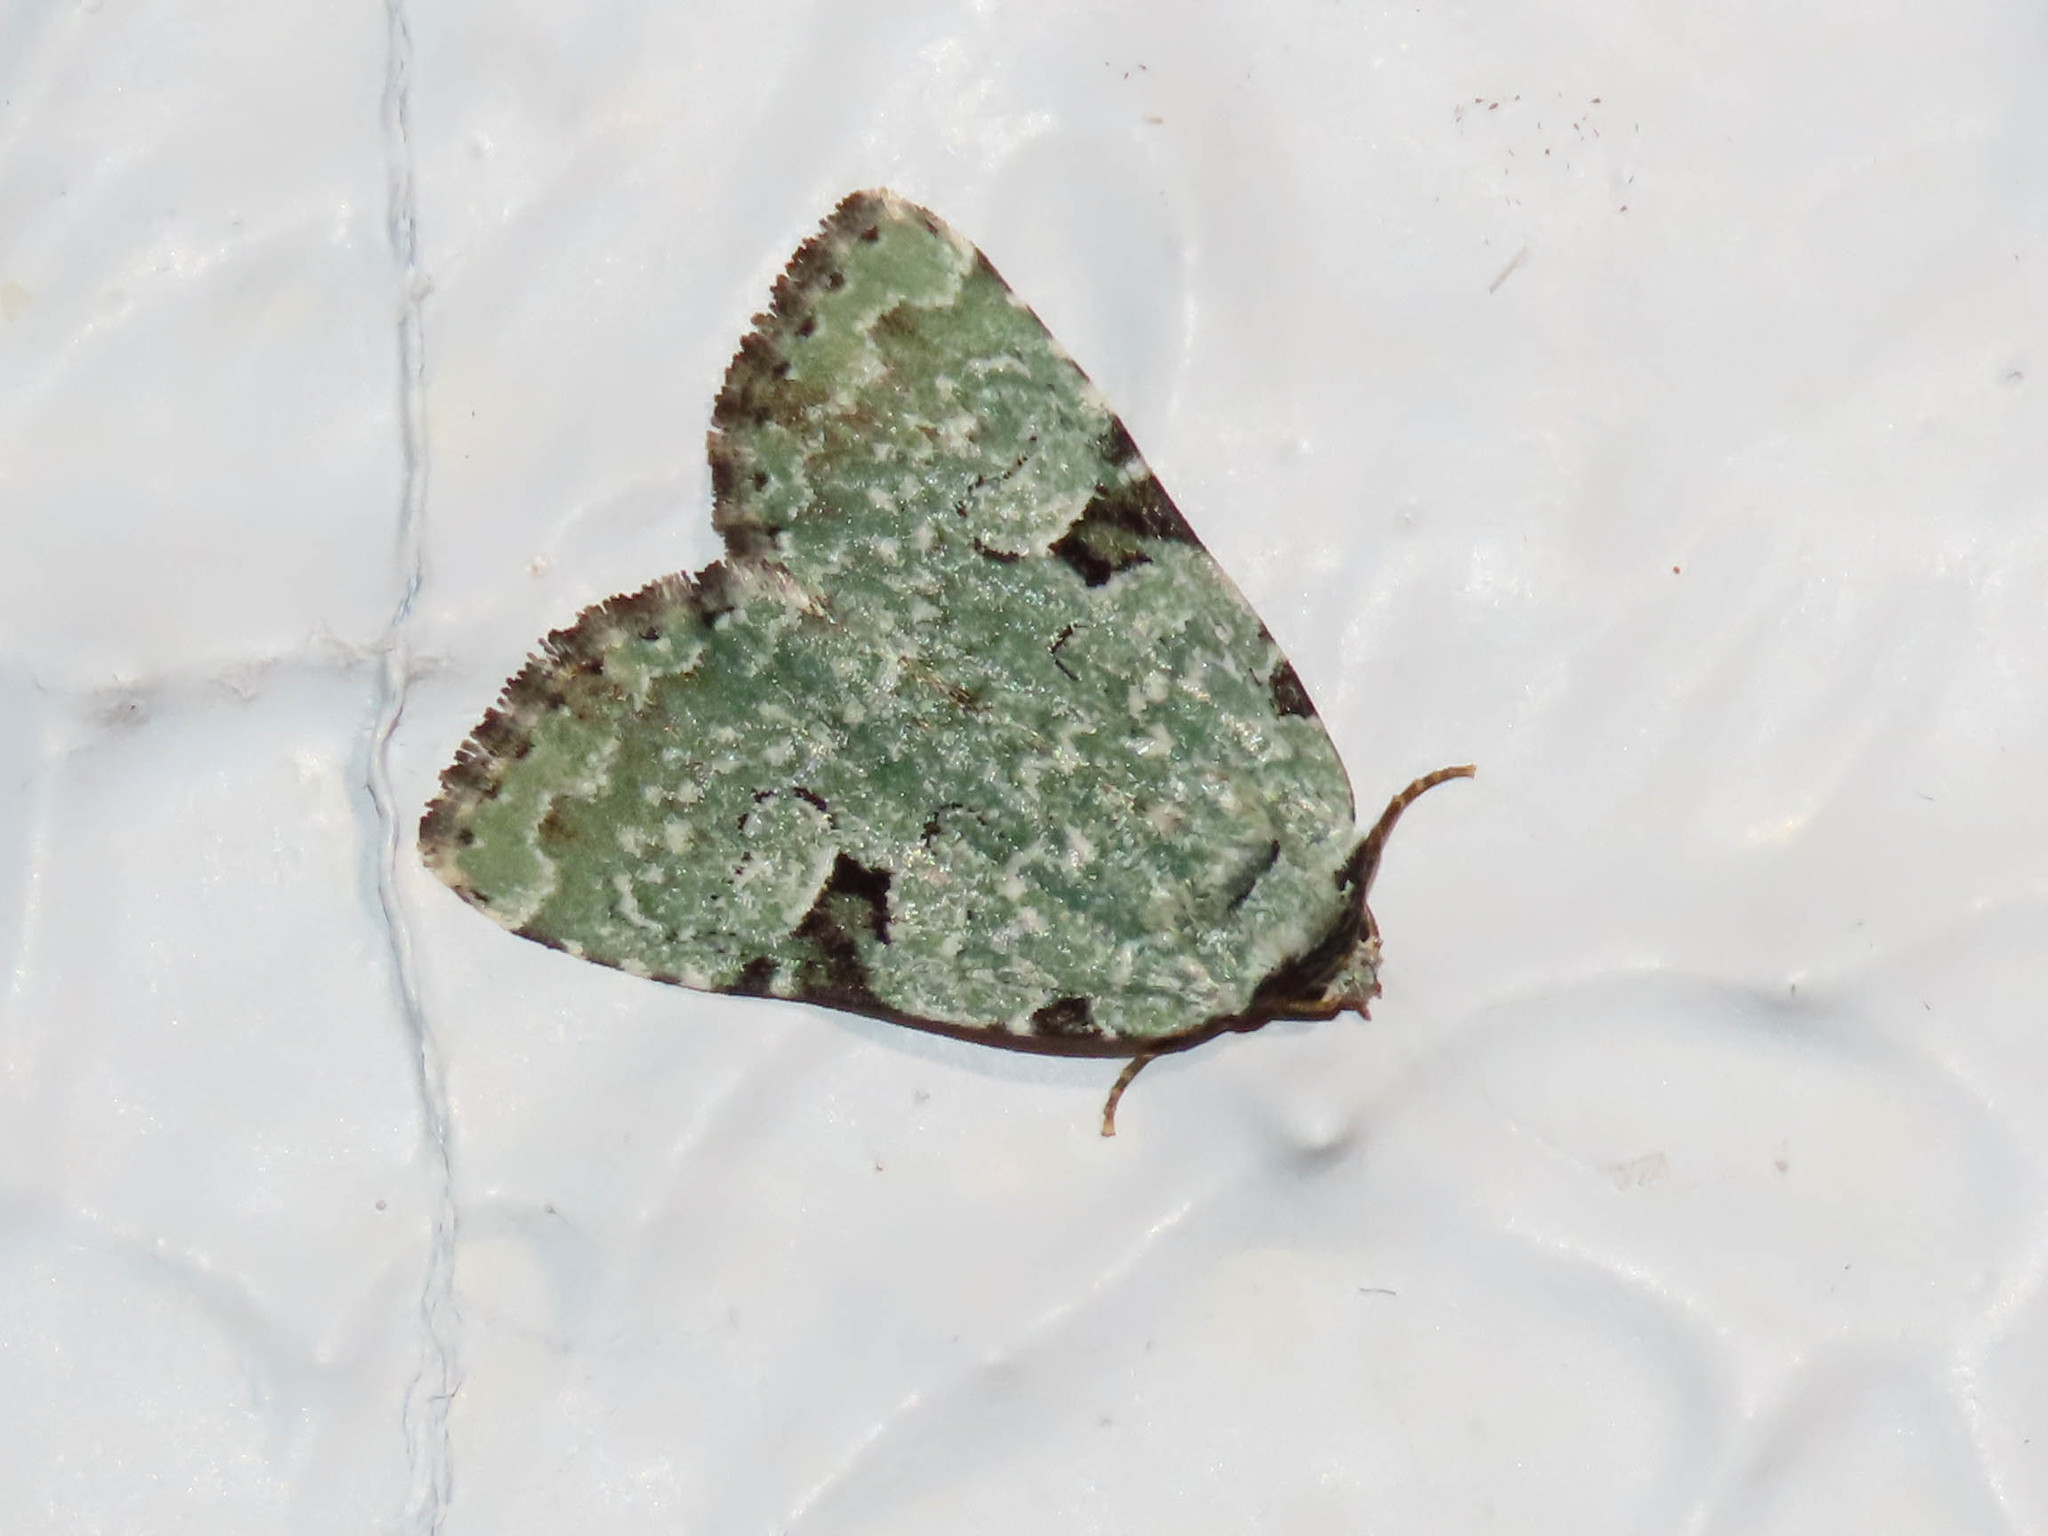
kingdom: Animalia
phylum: Arthropoda
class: Insecta
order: Lepidoptera
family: Noctuidae
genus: Leuconycta
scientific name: Leuconycta diphteroides
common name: Green leuconycta moth
